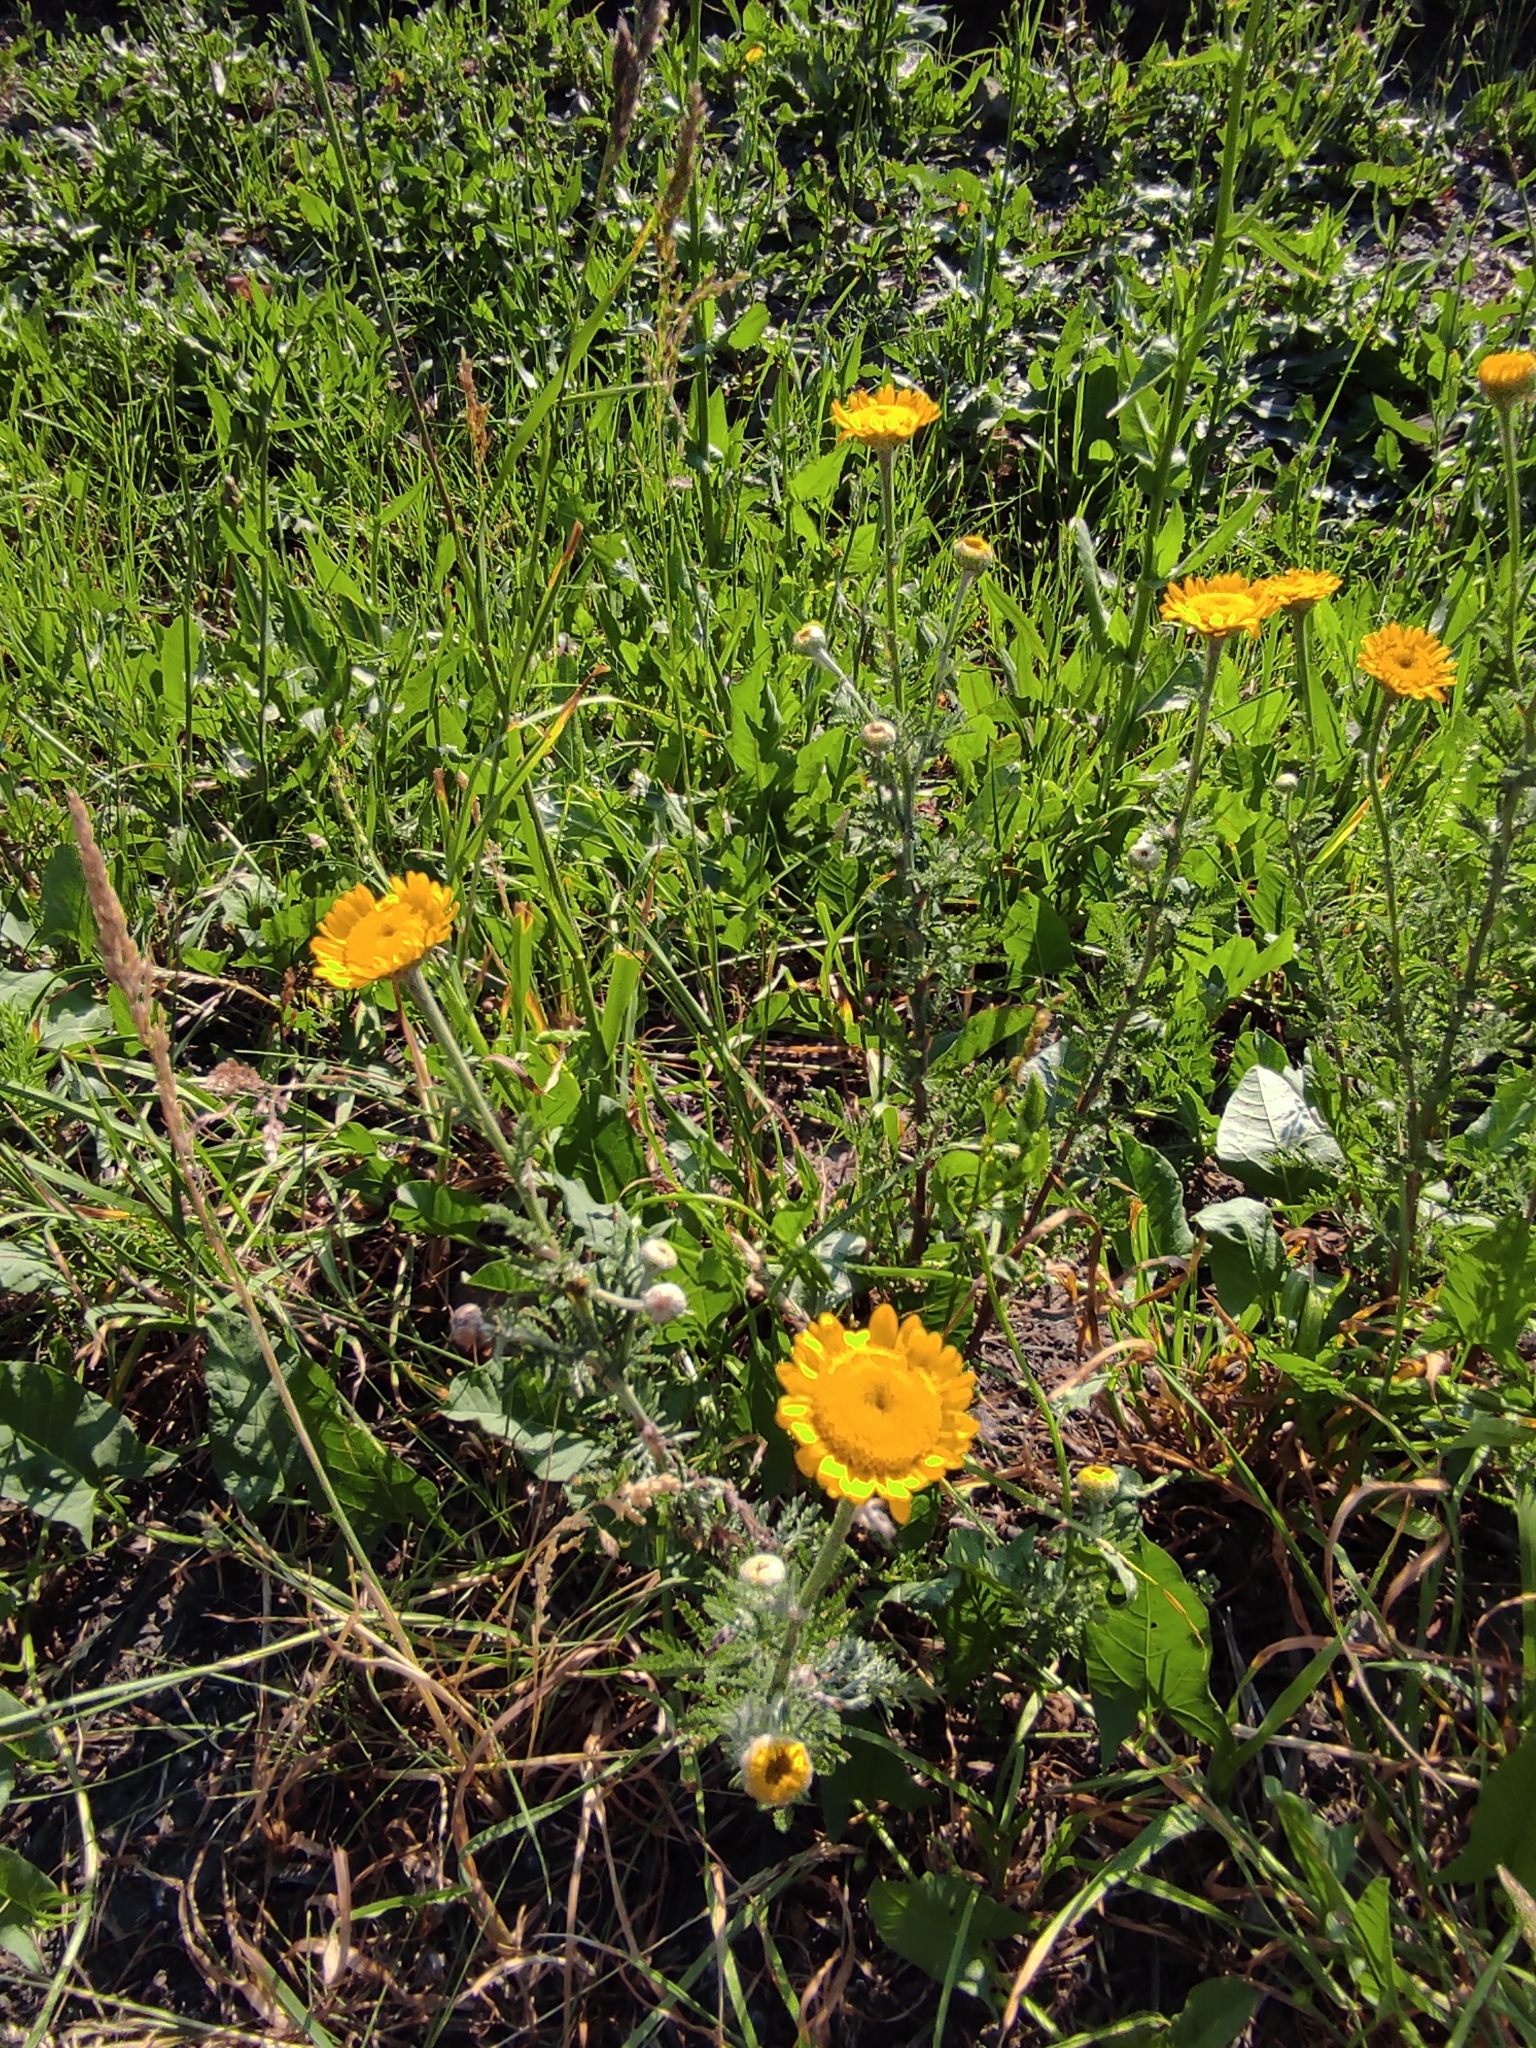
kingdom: Plantae
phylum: Tracheophyta
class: Magnoliopsida
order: Asterales
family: Asteraceae
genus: Cota
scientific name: Cota tinctoria
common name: Golden chamomile
